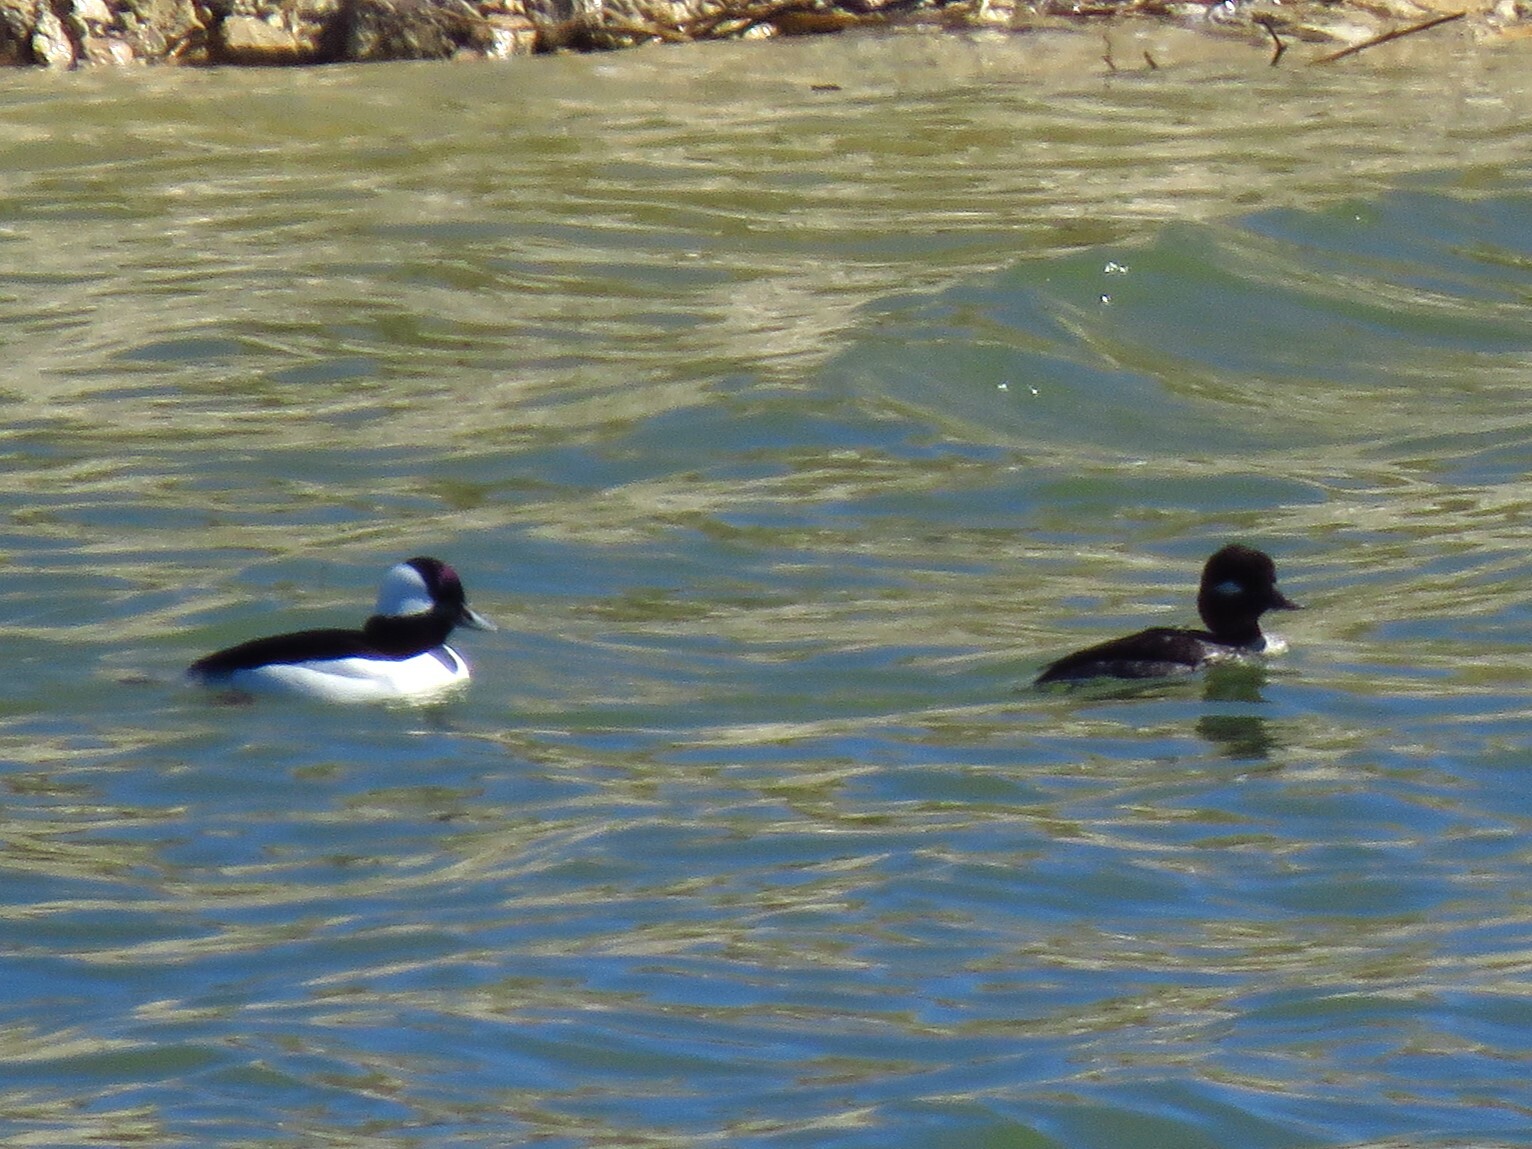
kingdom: Animalia
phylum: Chordata
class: Aves
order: Anseriformes
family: Anatidae
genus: Bucephala
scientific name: Bucephala albeola
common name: Bufflehead
